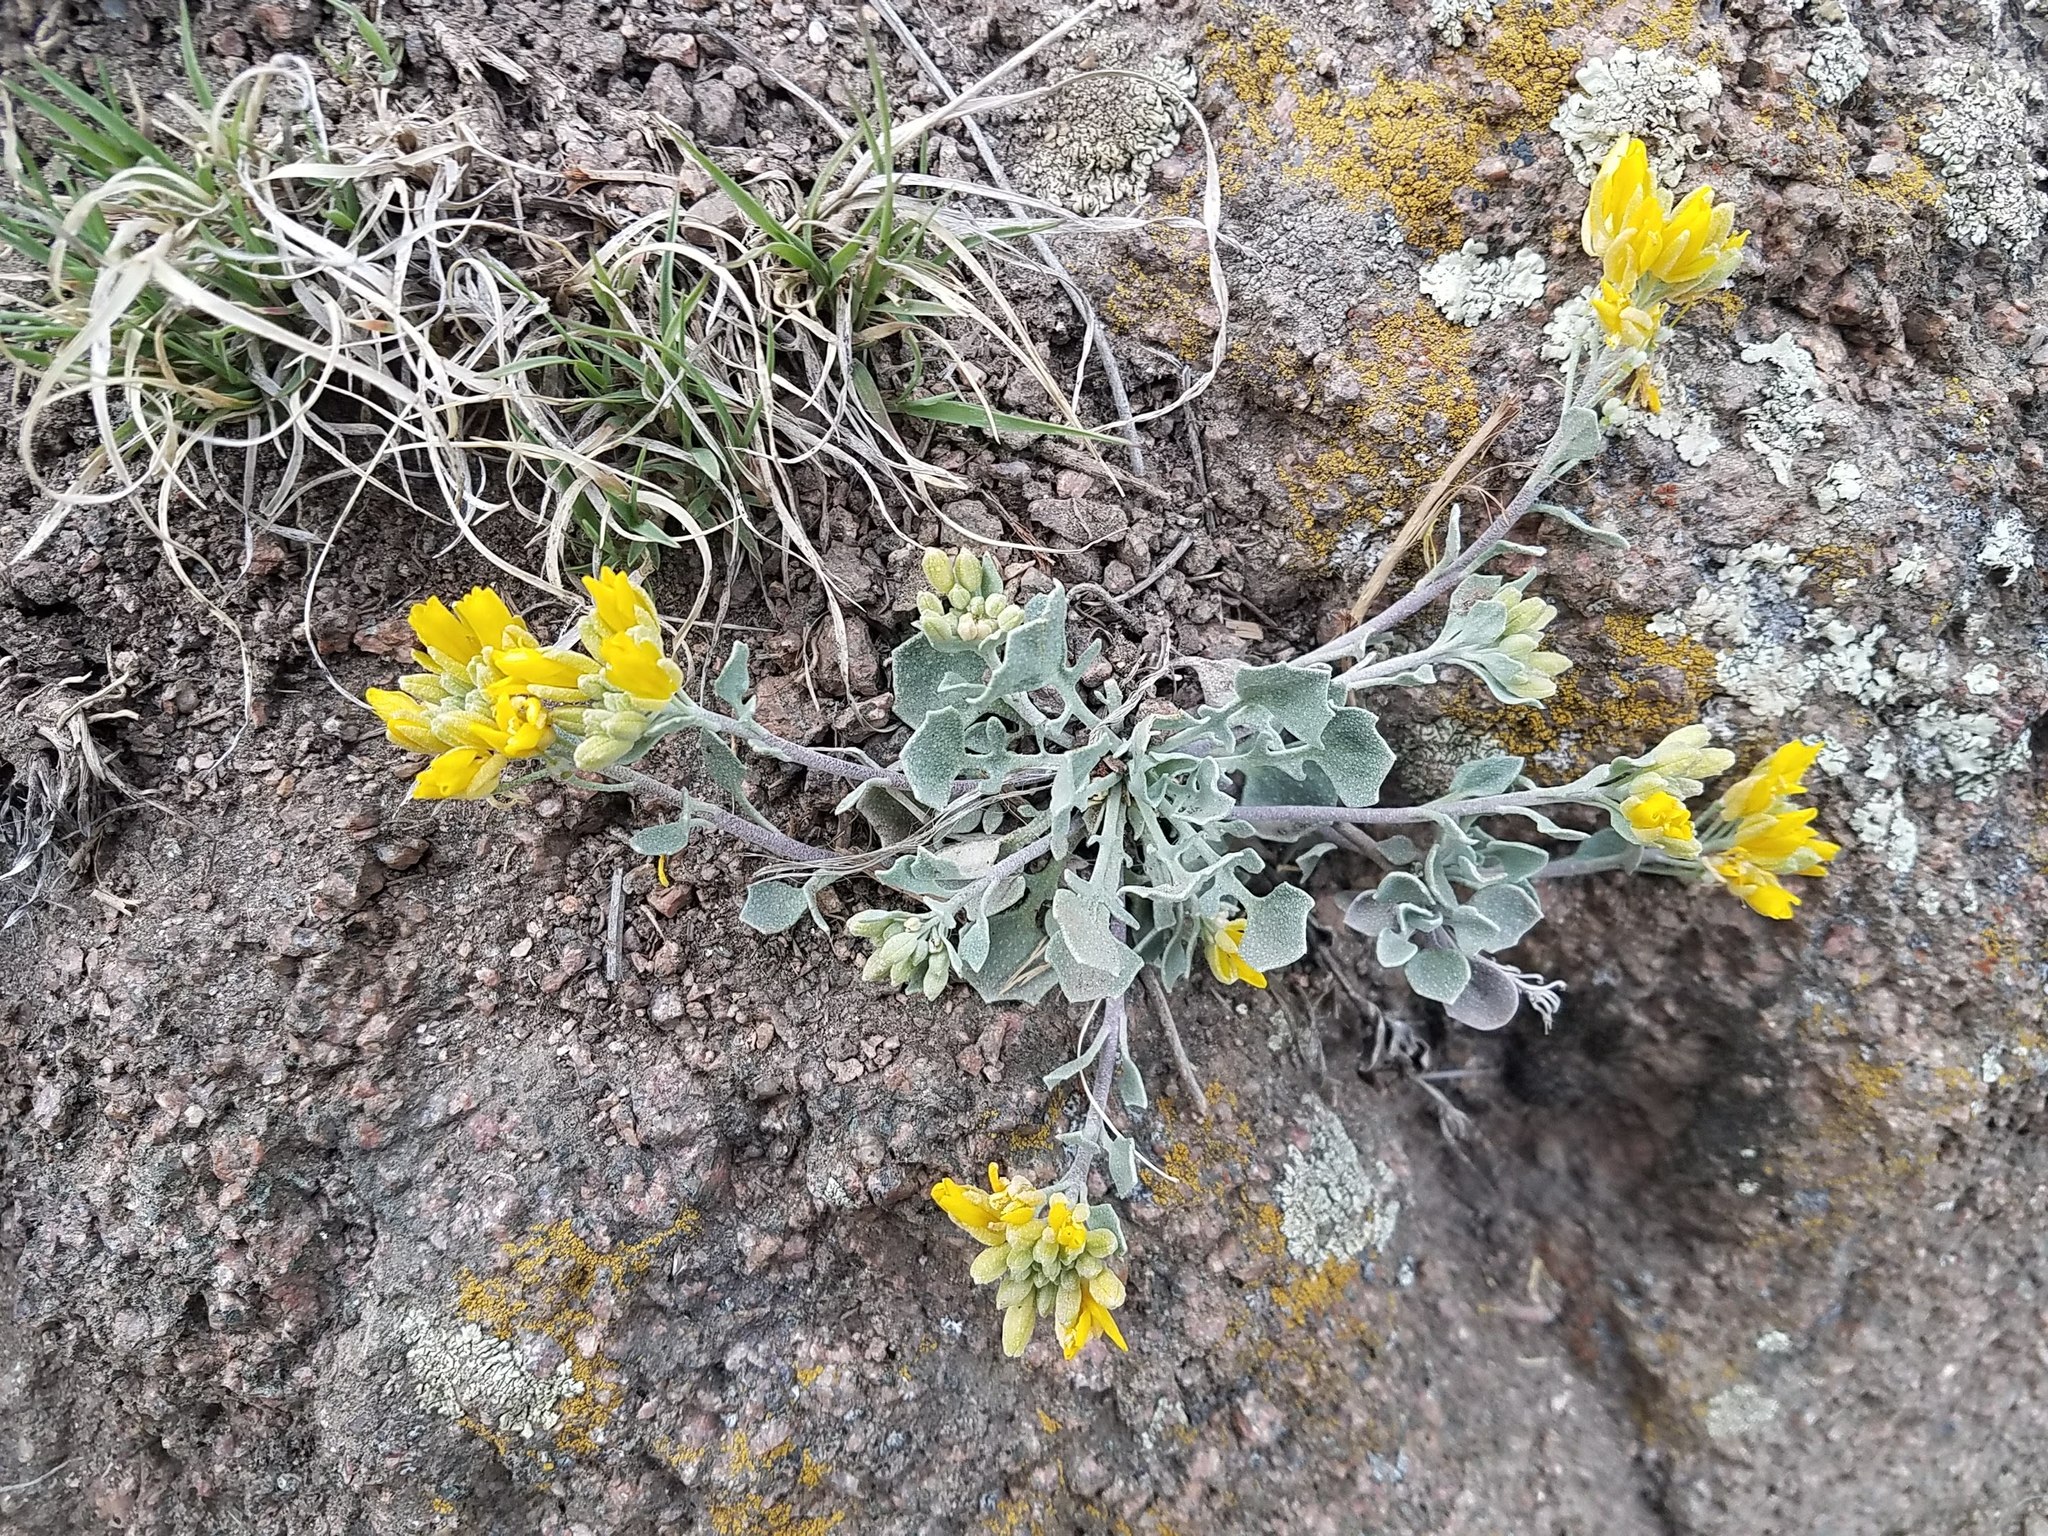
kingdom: Plantae
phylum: Tracheophyta
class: Magnoliopsida
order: Brassicales
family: Brassicaceae
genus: Physaria
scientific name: Physaria vitulifera
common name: Roundtrip twinpod
